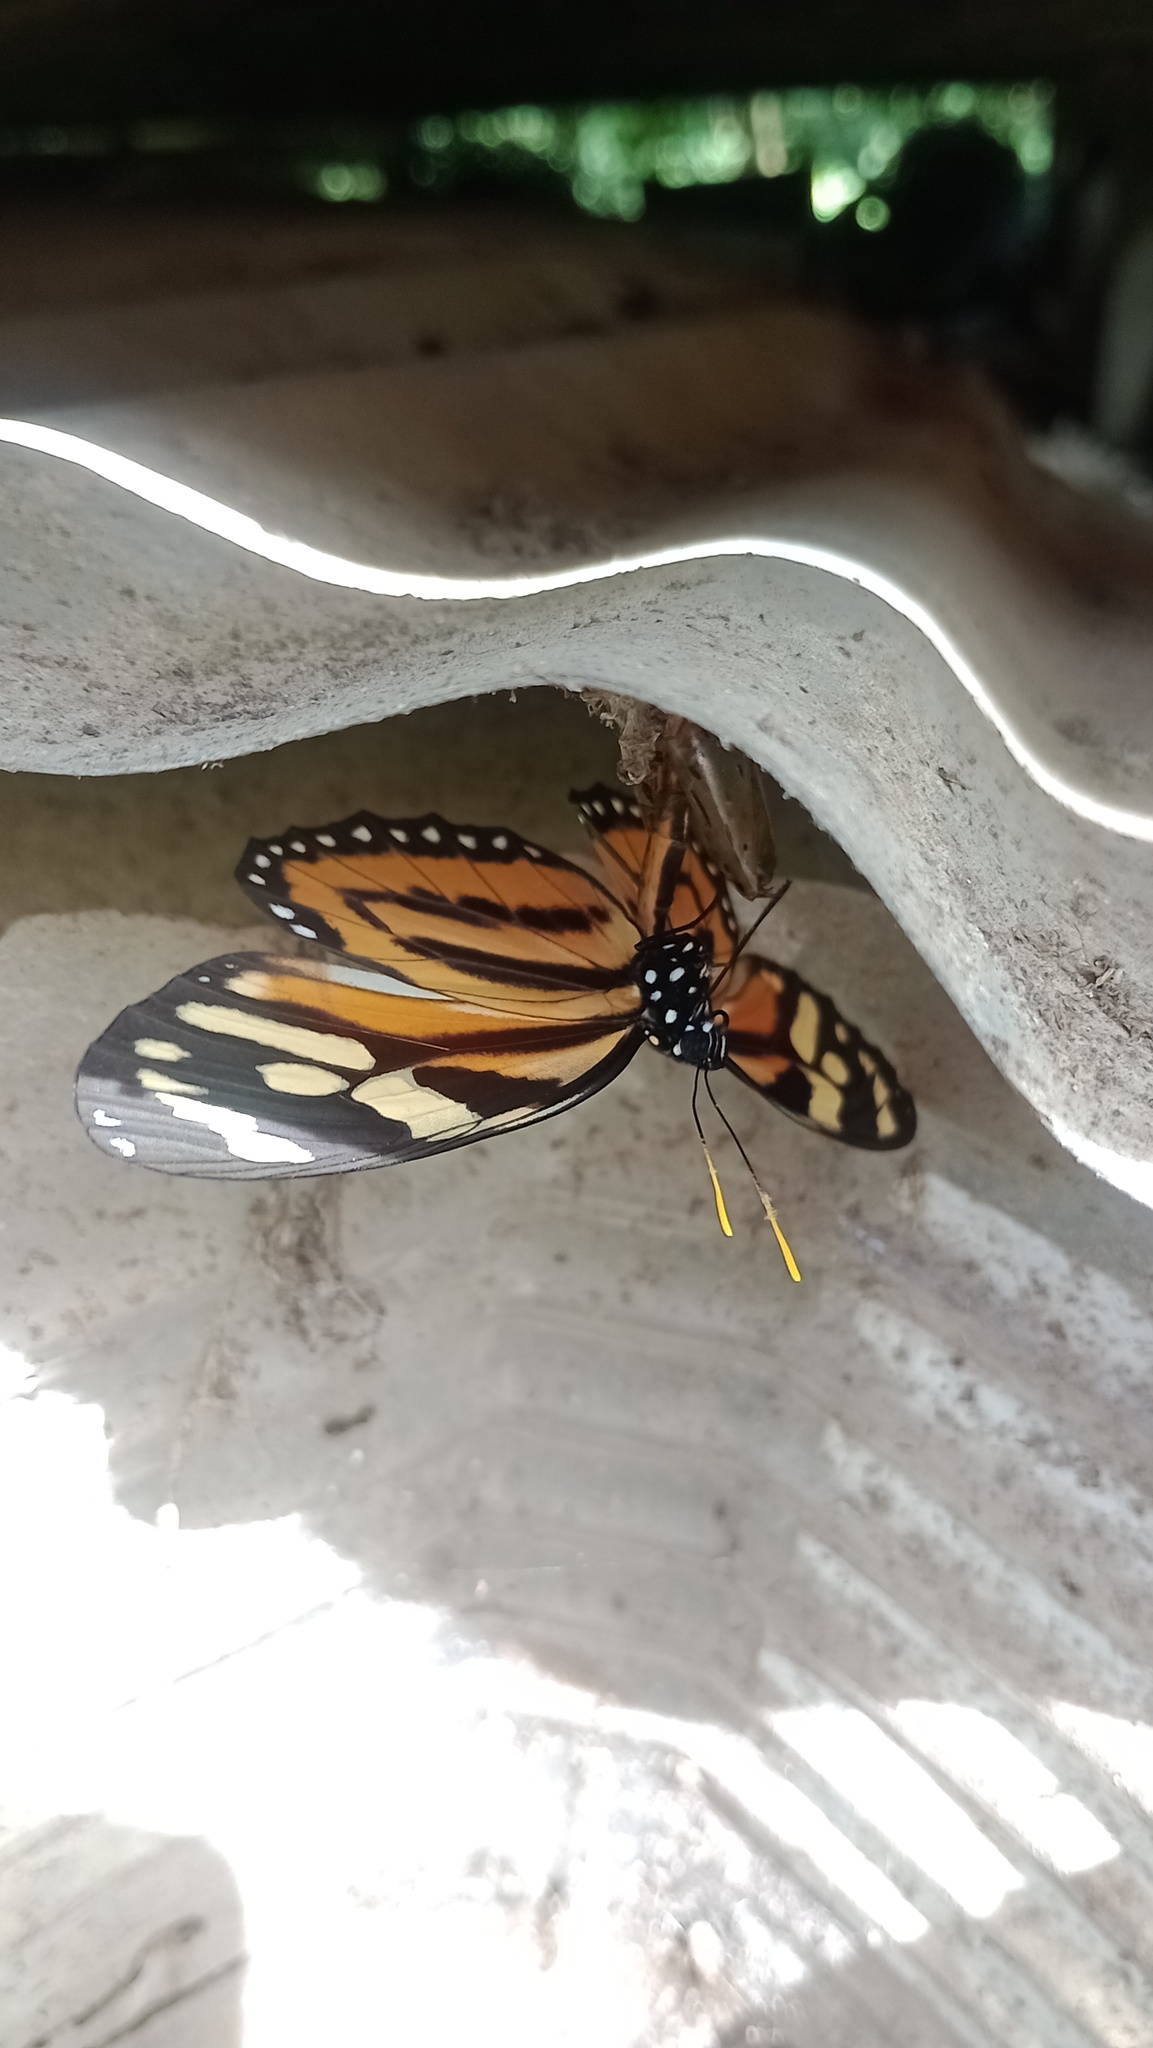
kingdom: Animalia
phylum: Arthropoda
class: Insecta
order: Lepidoptera
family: Nymphalidae
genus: Lycorea
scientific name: Lycorea cleobaea
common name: Tiger mimic-queen
